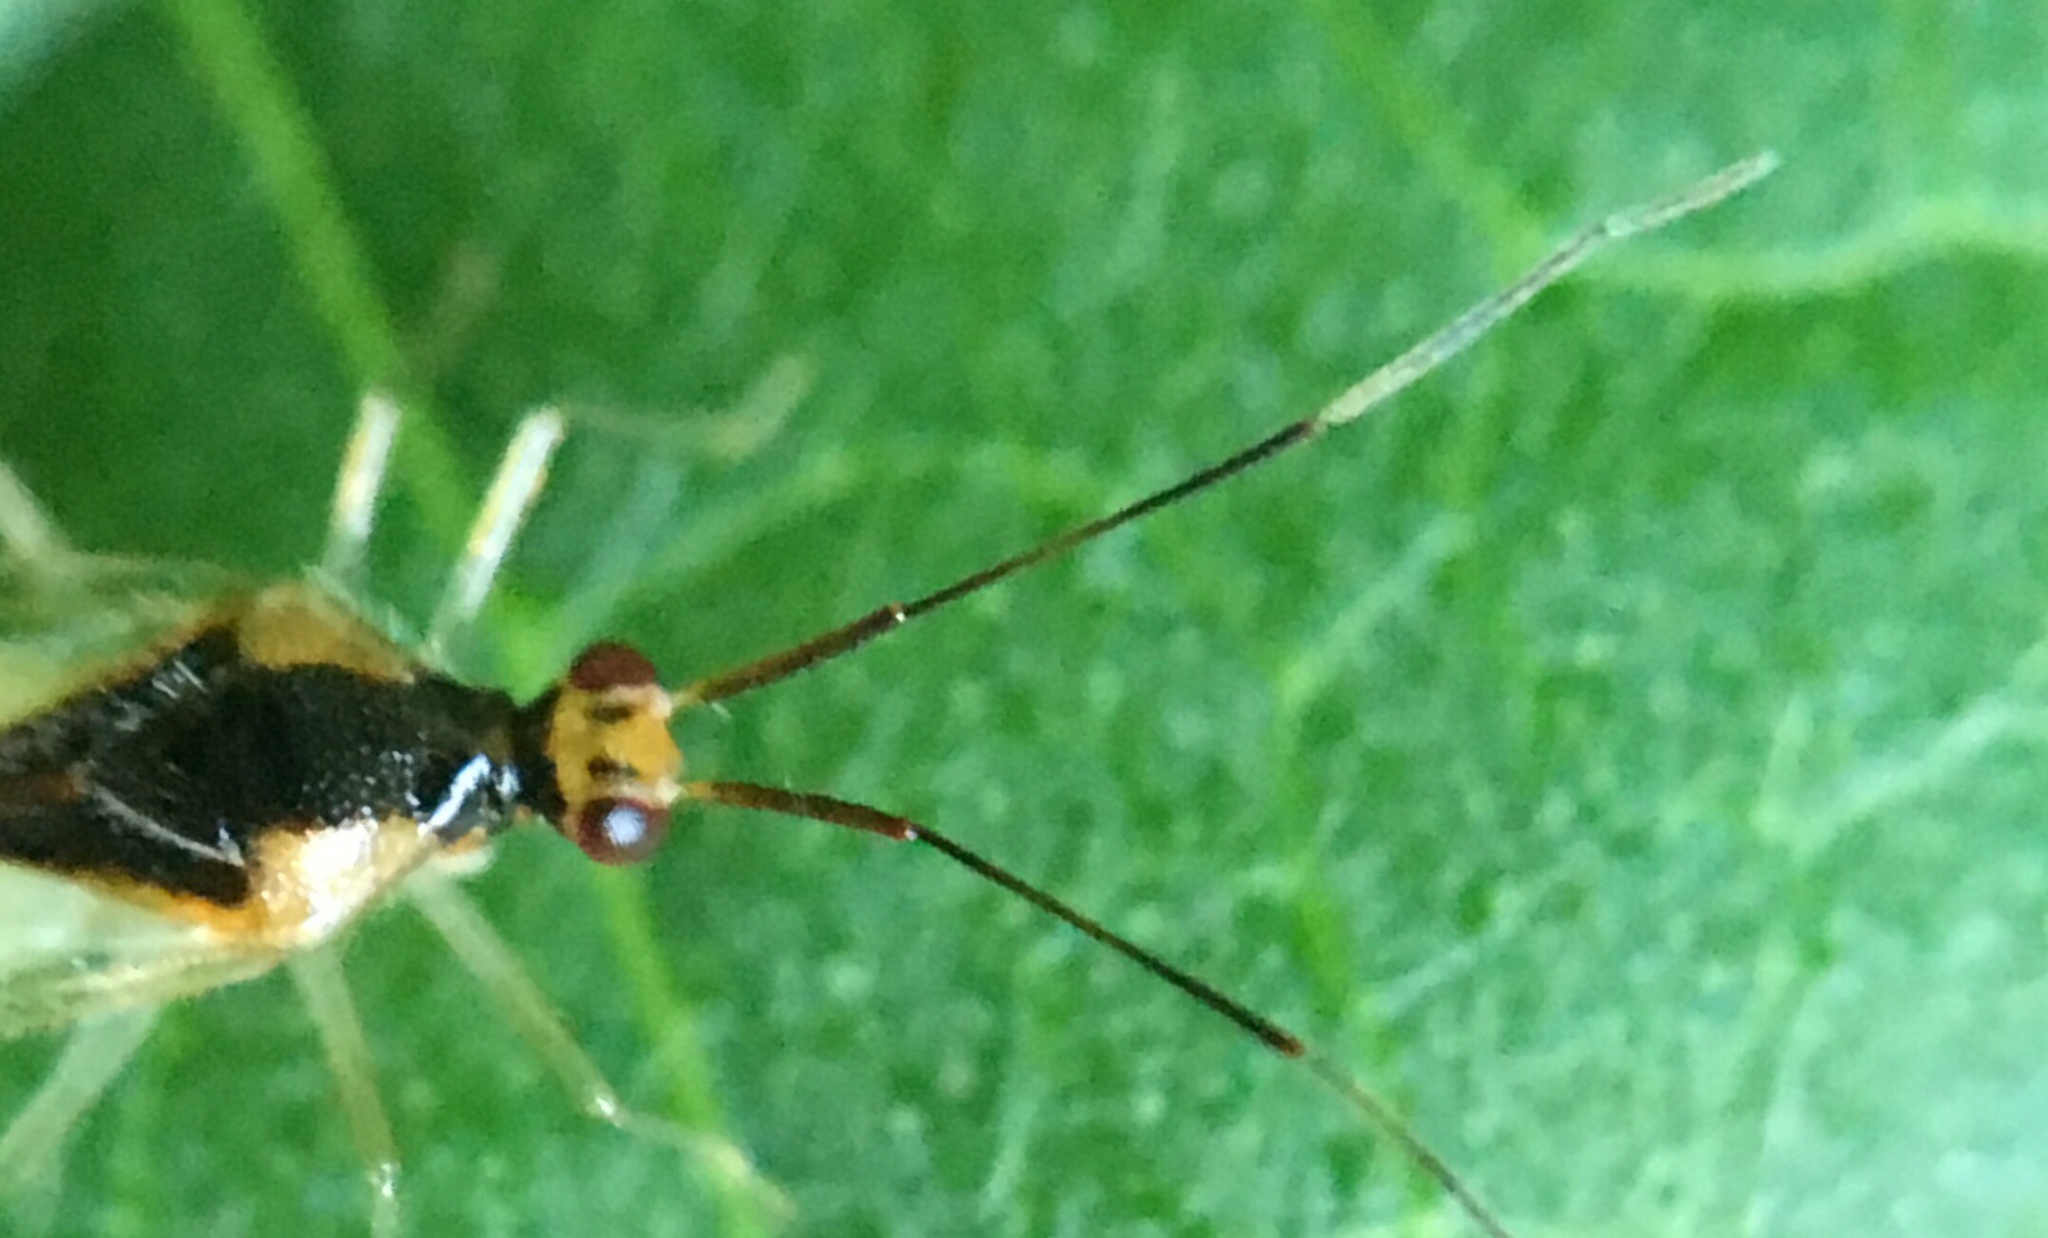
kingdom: Animalia
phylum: Arthropoda
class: Insecta
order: Hemiptera
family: Miridae
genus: Hyaliodes
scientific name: Hyaliodes vitripennis
